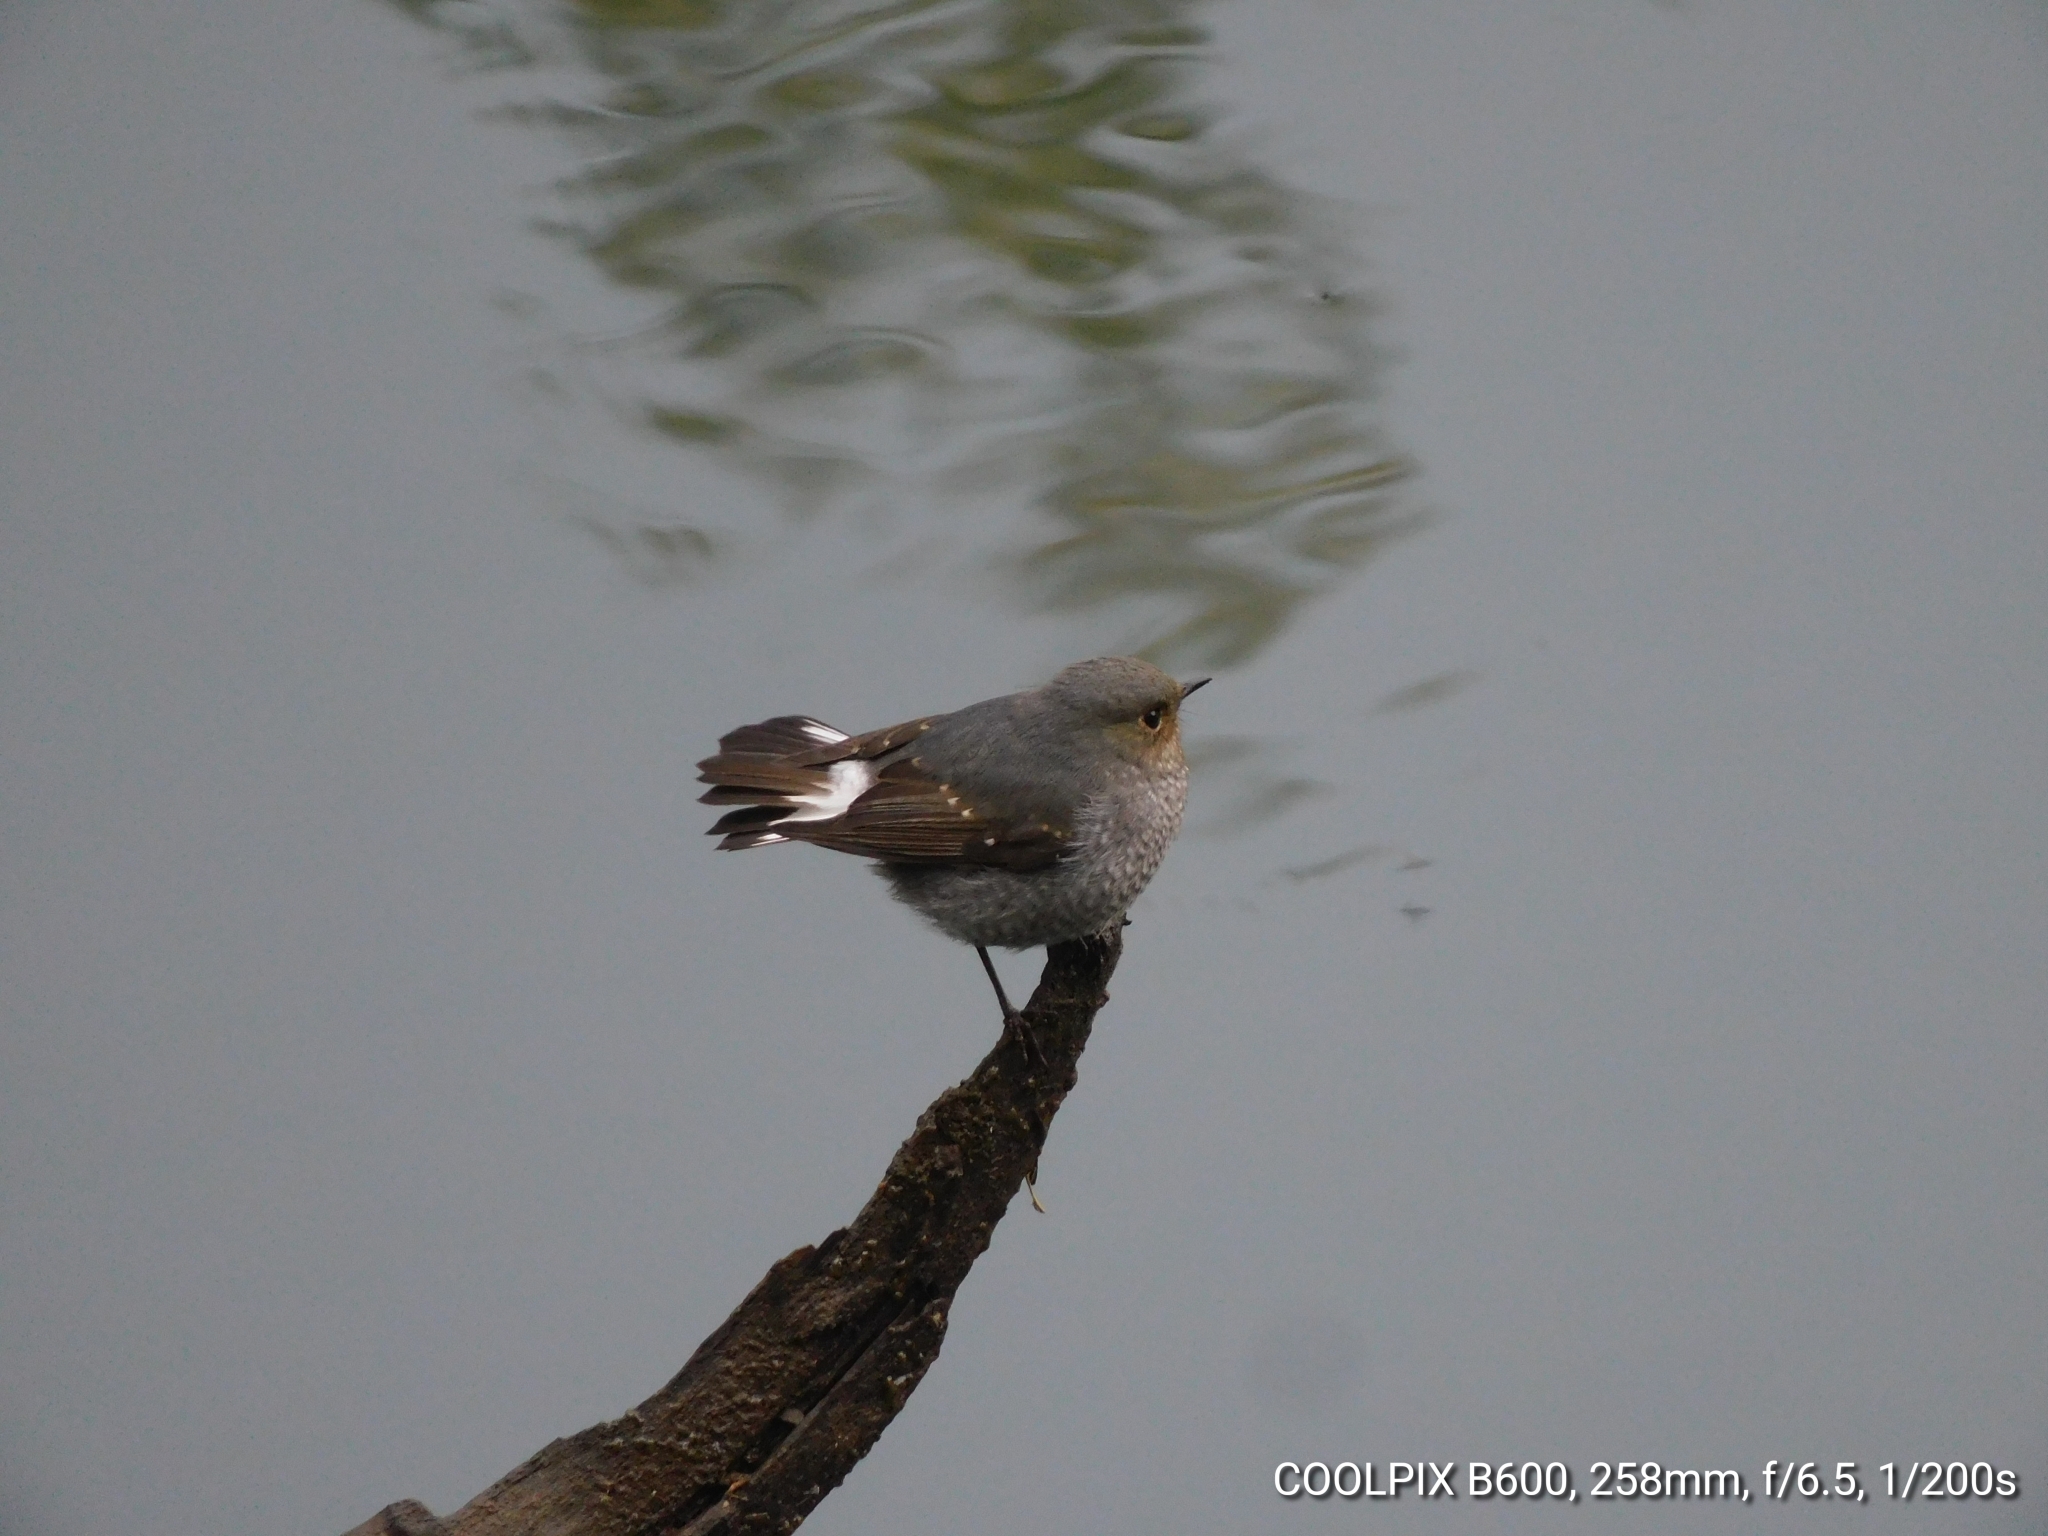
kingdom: Animalia
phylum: Chordata
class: Aves
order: Passeriformes
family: Muscicapidae
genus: Phoenicurus
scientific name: Phoenicurus fuliginosus
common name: Plumbeous water redstart
